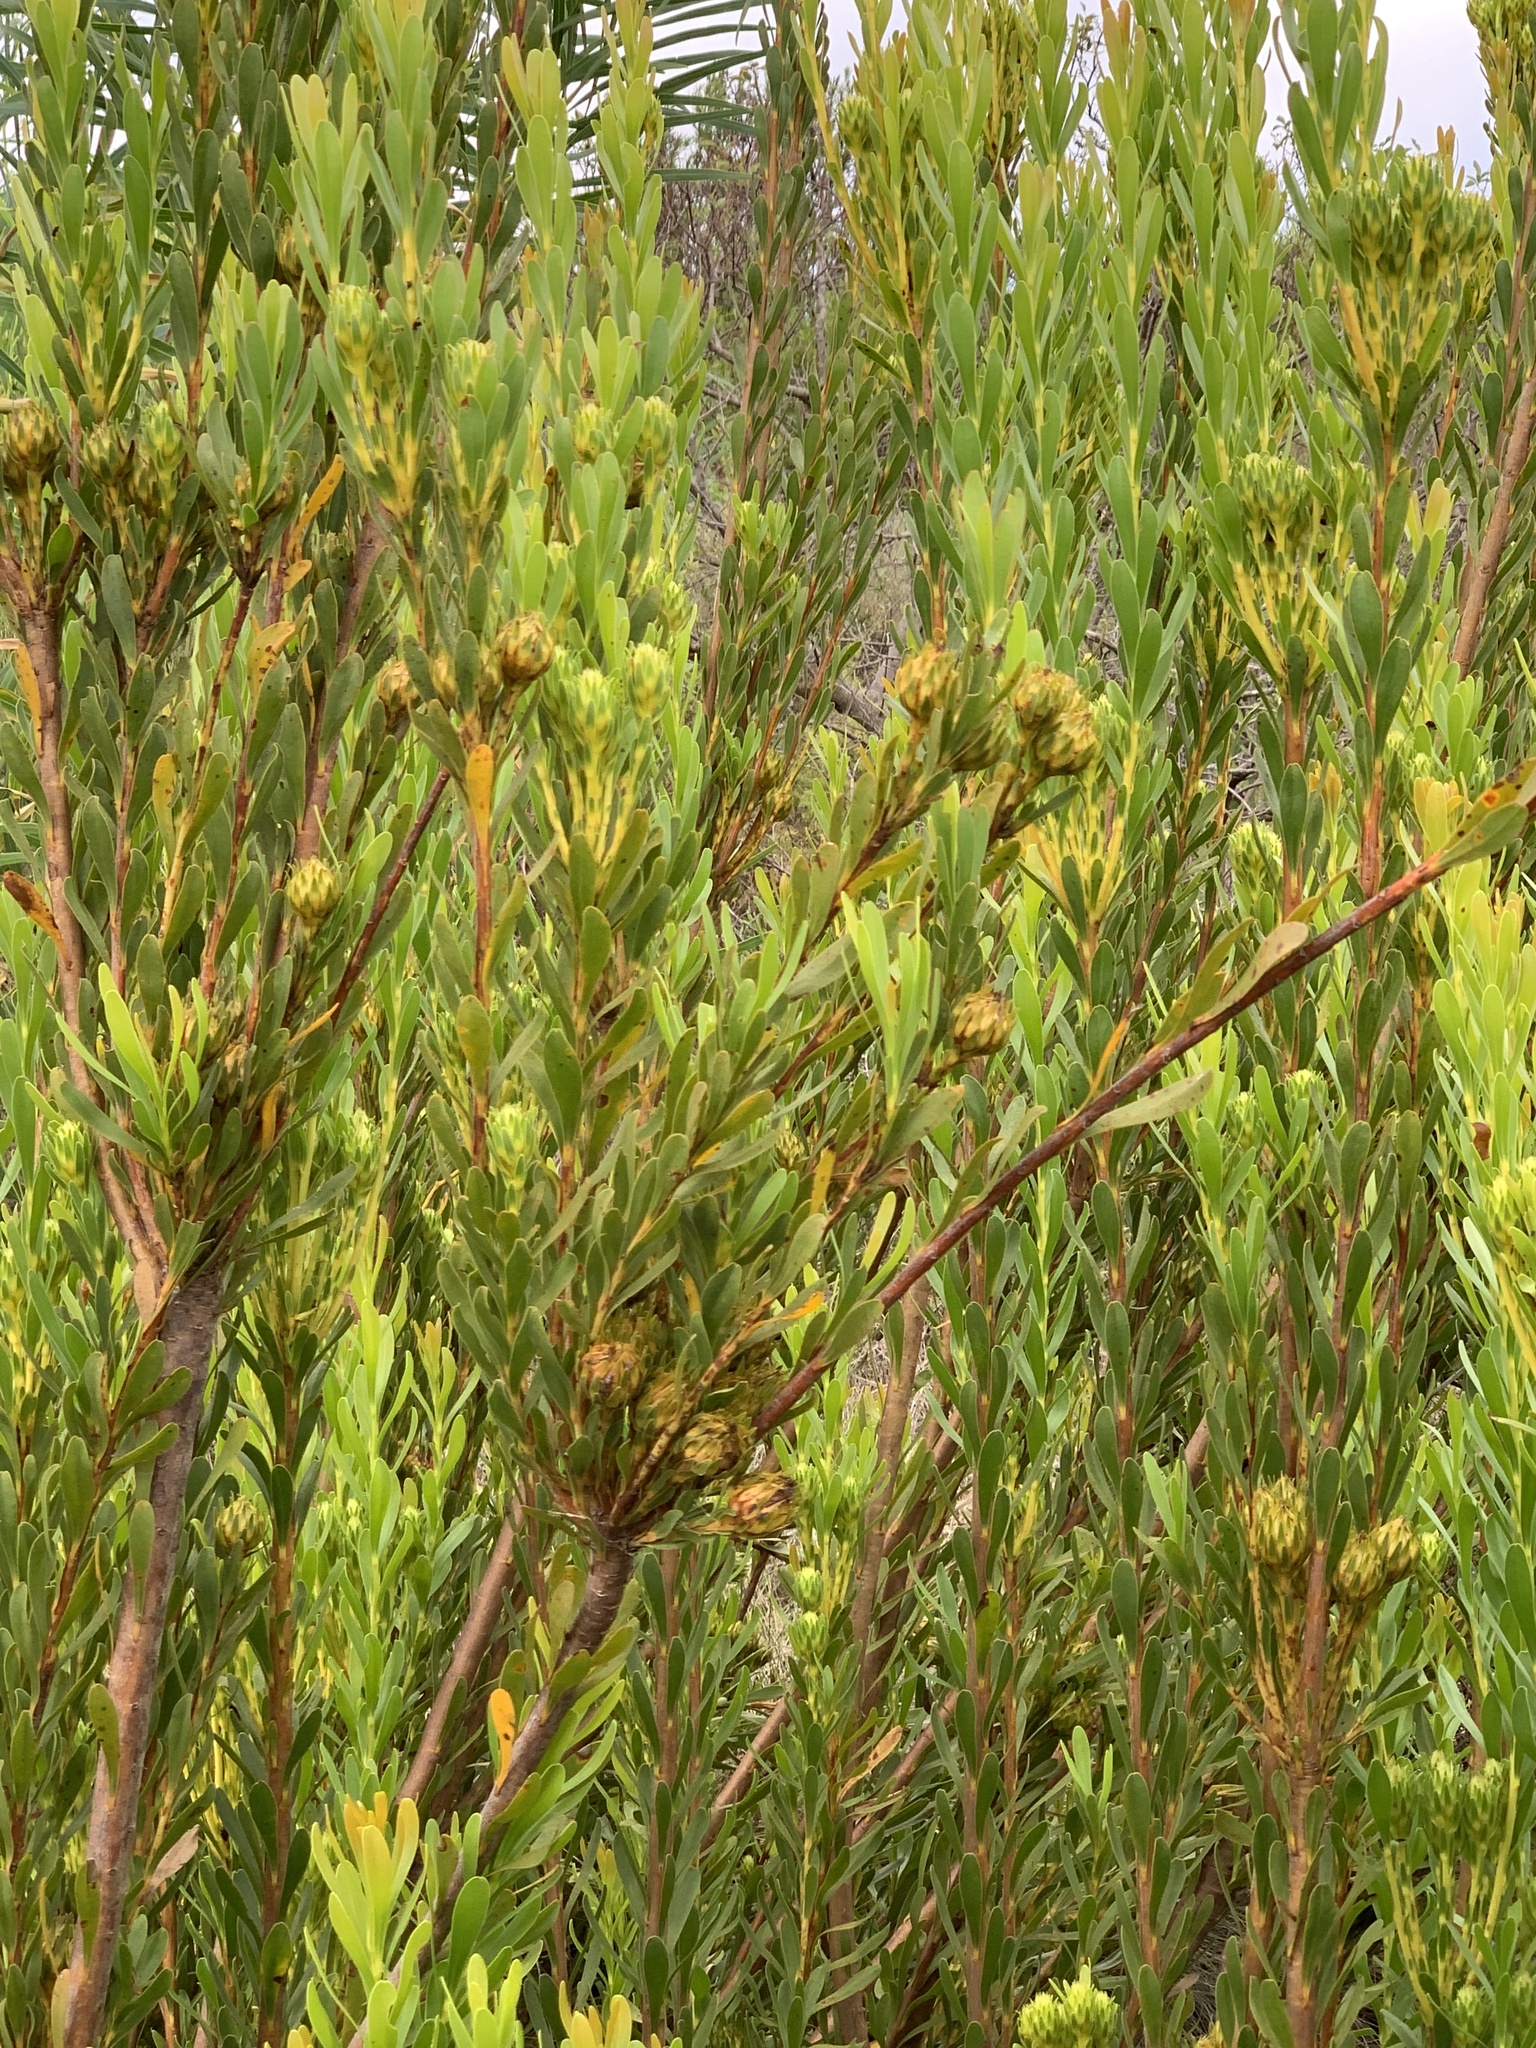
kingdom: Plantae
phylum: Tracheophyta
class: Magnoliopsida
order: Proteales
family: Proteaceae
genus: Aulax
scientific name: Aulax umbellata
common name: Broad-leaf featherbush
